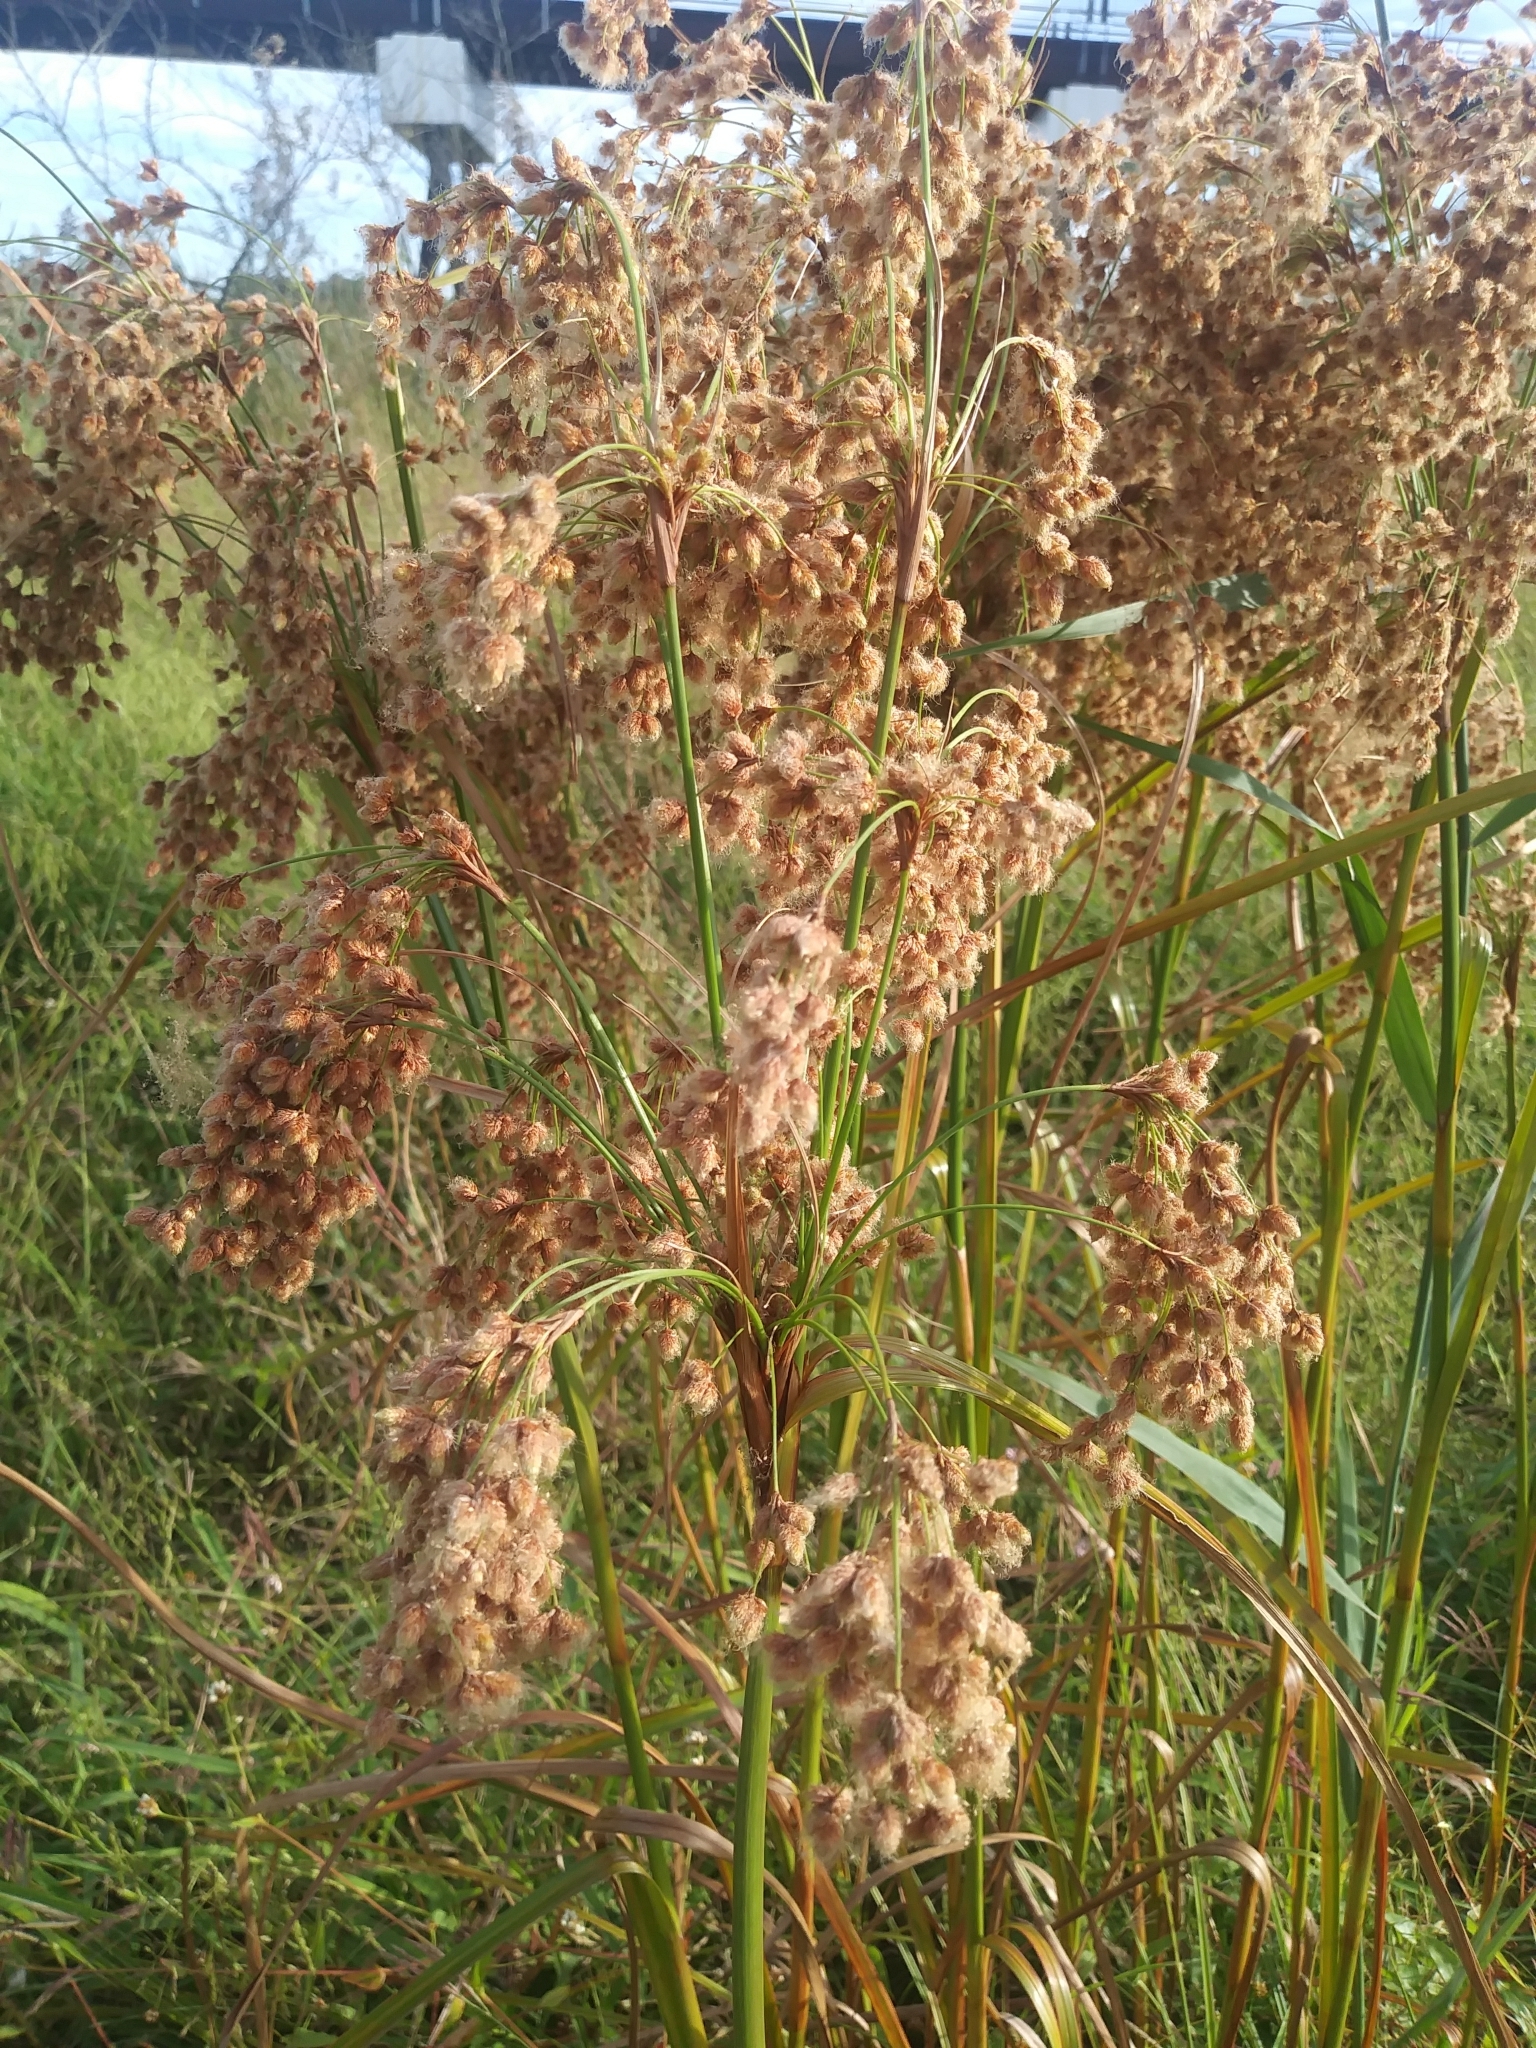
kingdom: Plantae
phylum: Tracheophyta
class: Liliopsida
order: Poales
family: Cyperaceae
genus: Scirpus
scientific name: Scirpus cyperinus
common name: Black-sheathed bulrush
